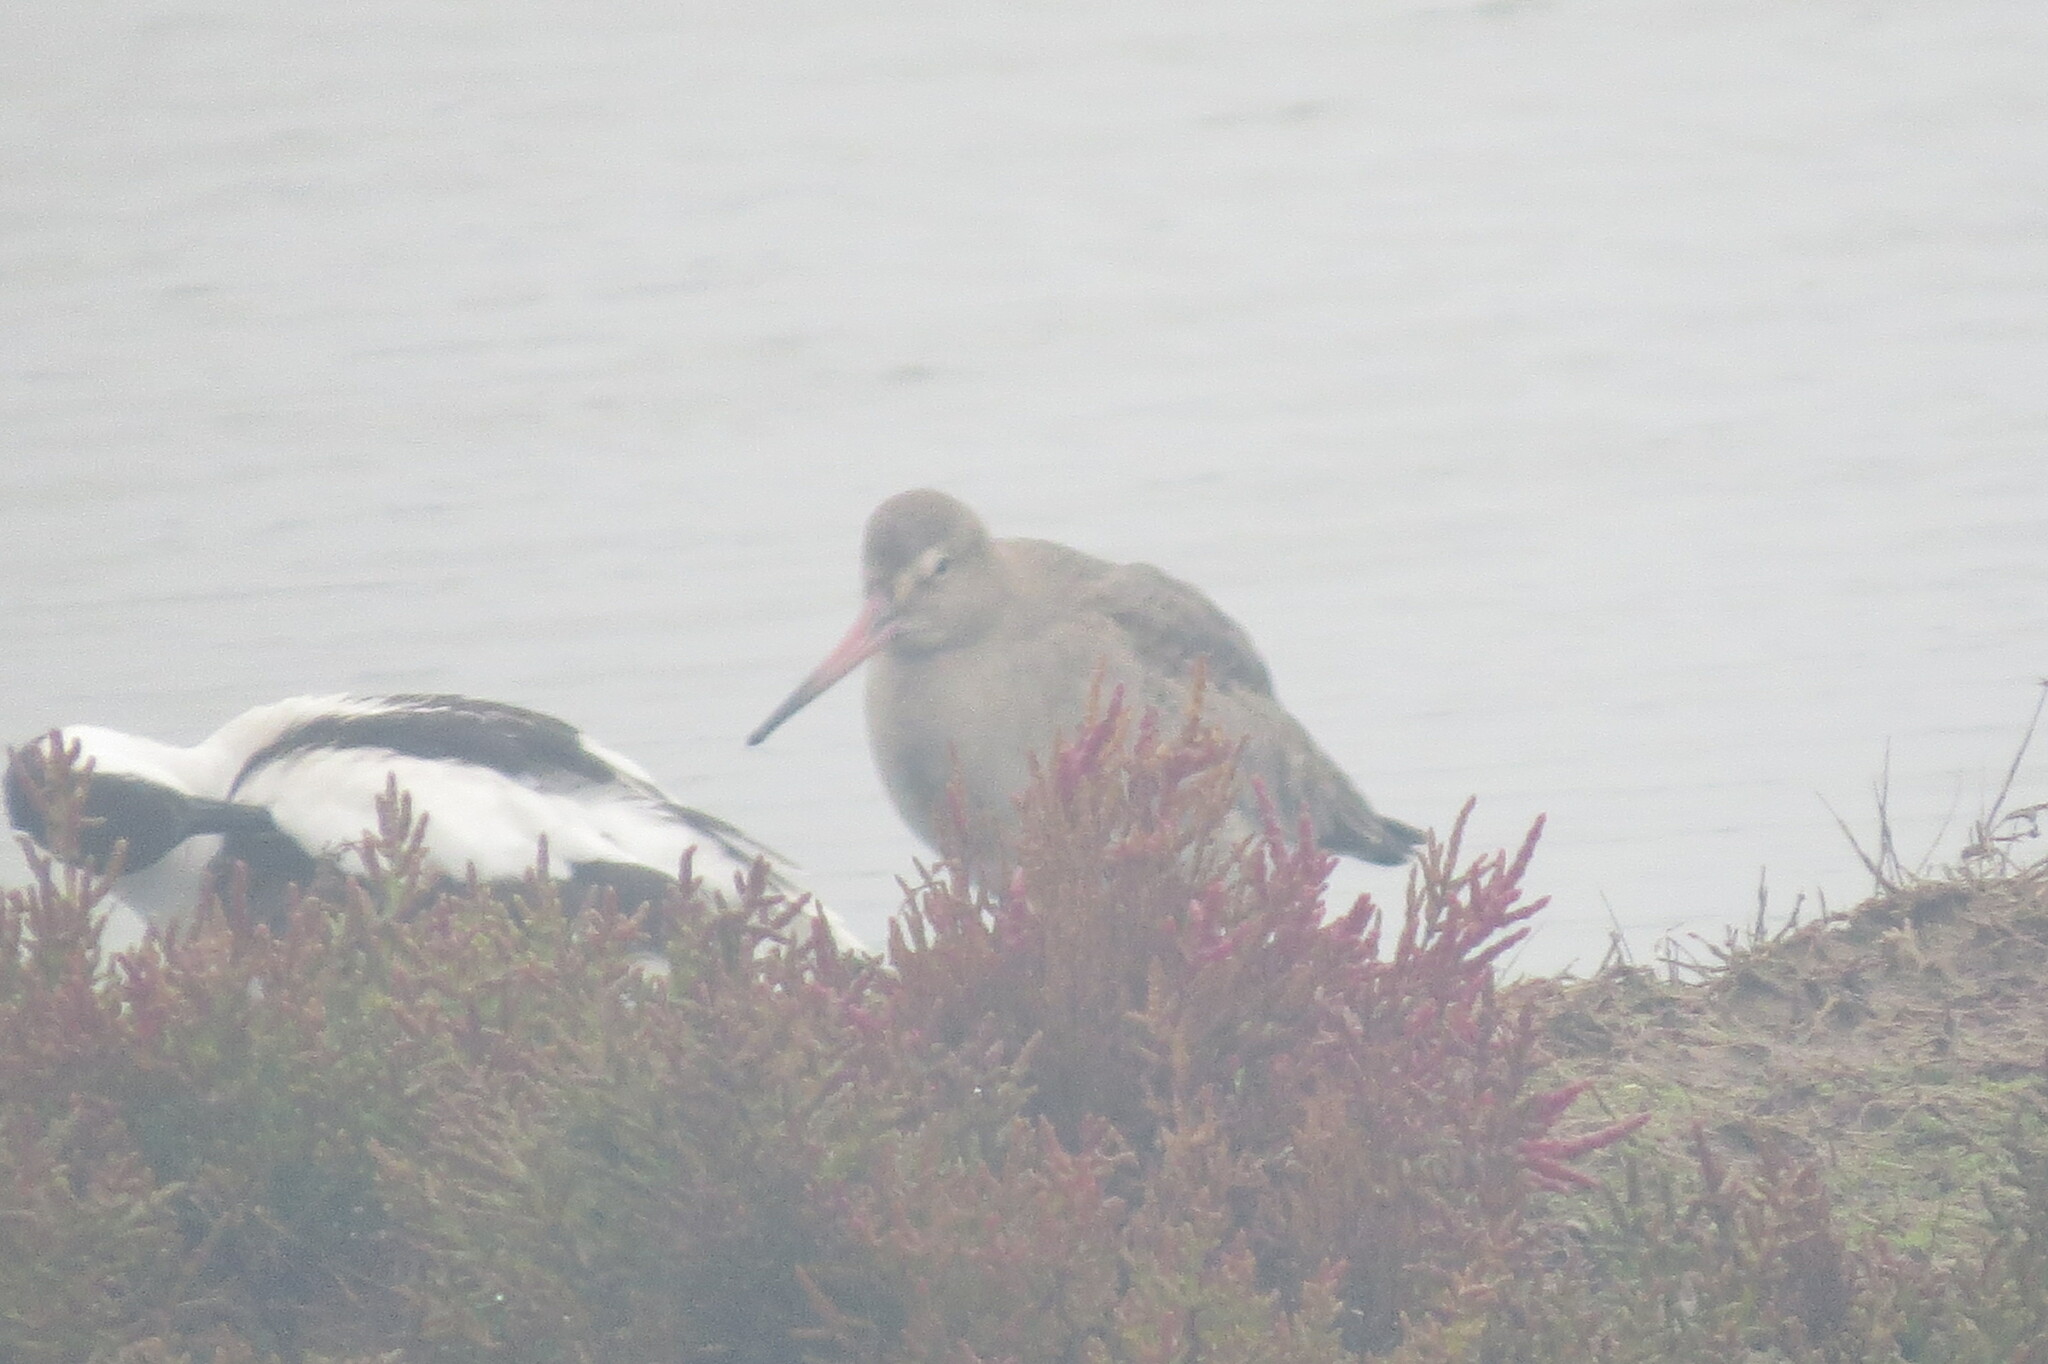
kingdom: Animalia
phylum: Chordata
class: Aves
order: Charadriiformes
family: Scolopacidae
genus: Limosa
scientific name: Limosa limosa
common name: Black-tailed godwit
